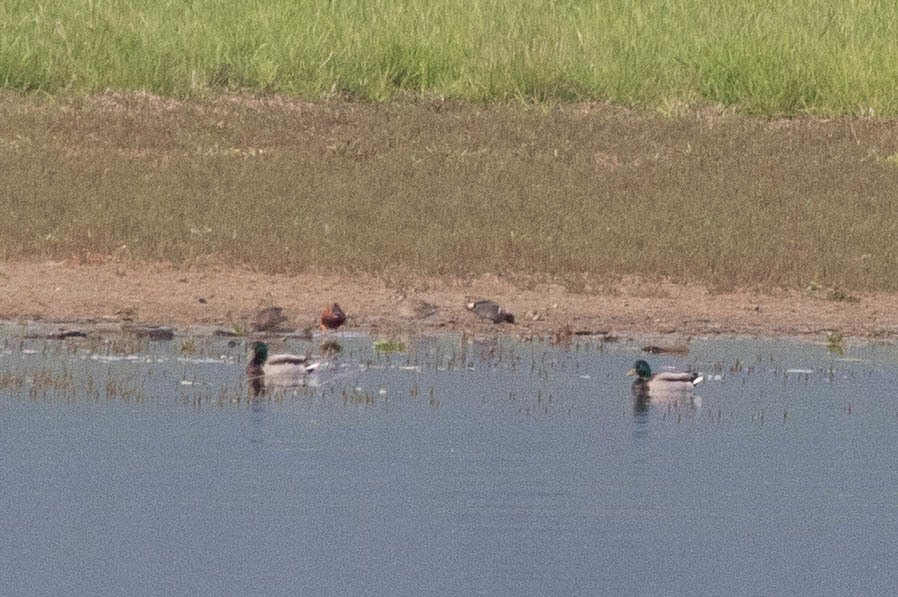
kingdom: Animalia
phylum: Chordata
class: Aves
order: Anseriformes
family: Anatidae
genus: Anas
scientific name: Anas carolinensis
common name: Green-winged teal
